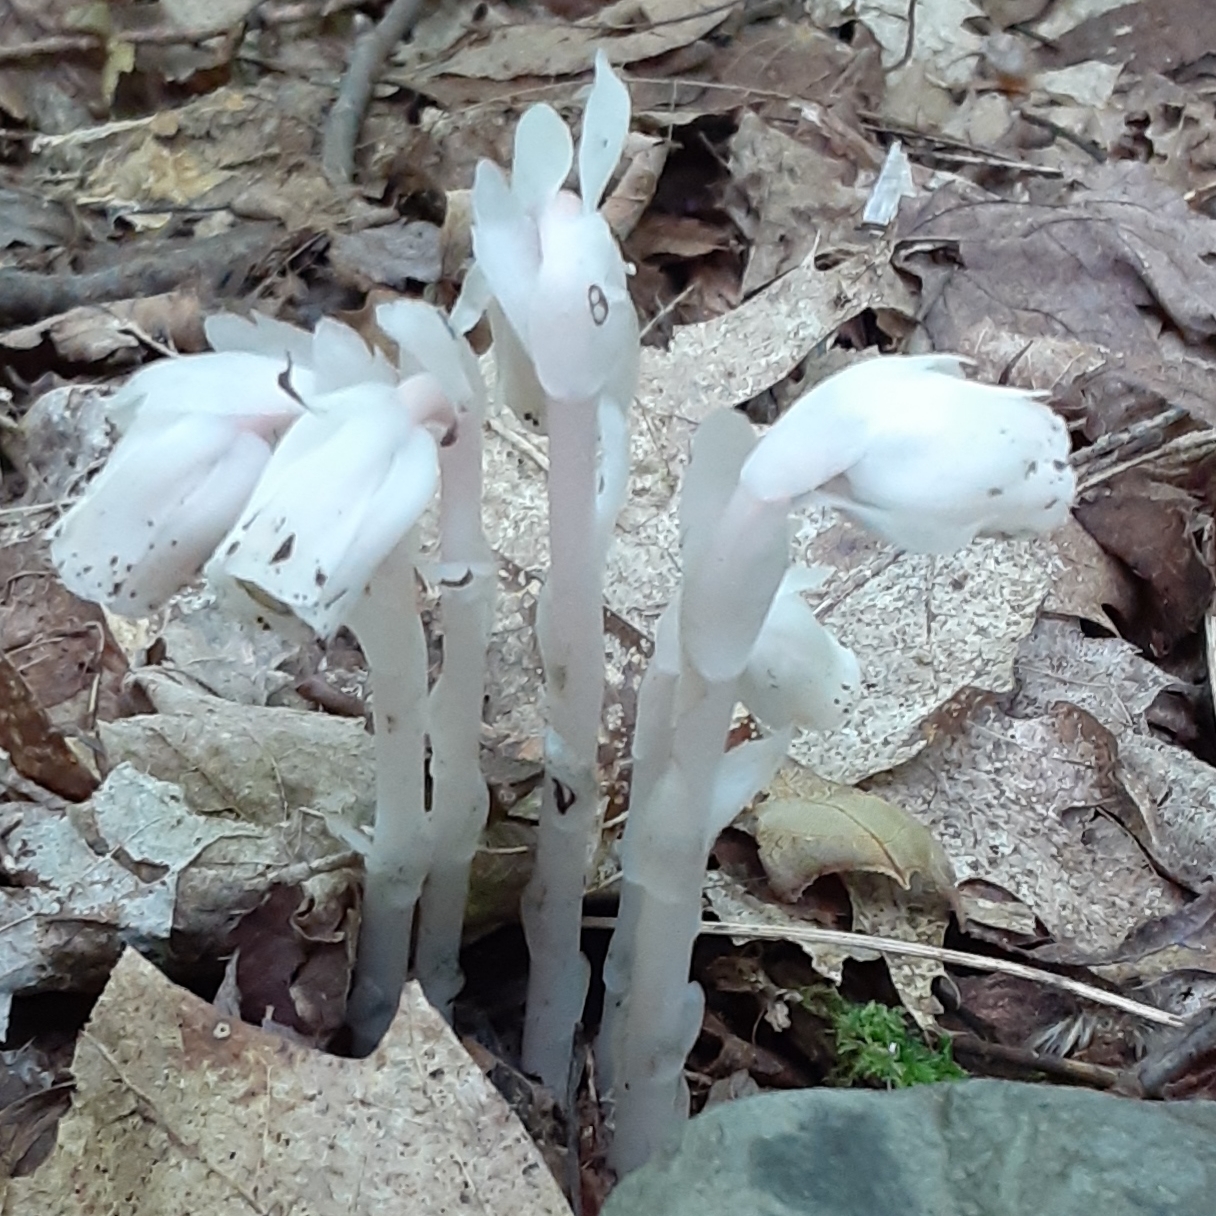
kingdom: Plantae
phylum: Tracheophyta
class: Magnoliopsida
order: Ericales
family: Ericaceae
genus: Monotropa
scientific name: Monotropa uniflora
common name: Convulsion root
